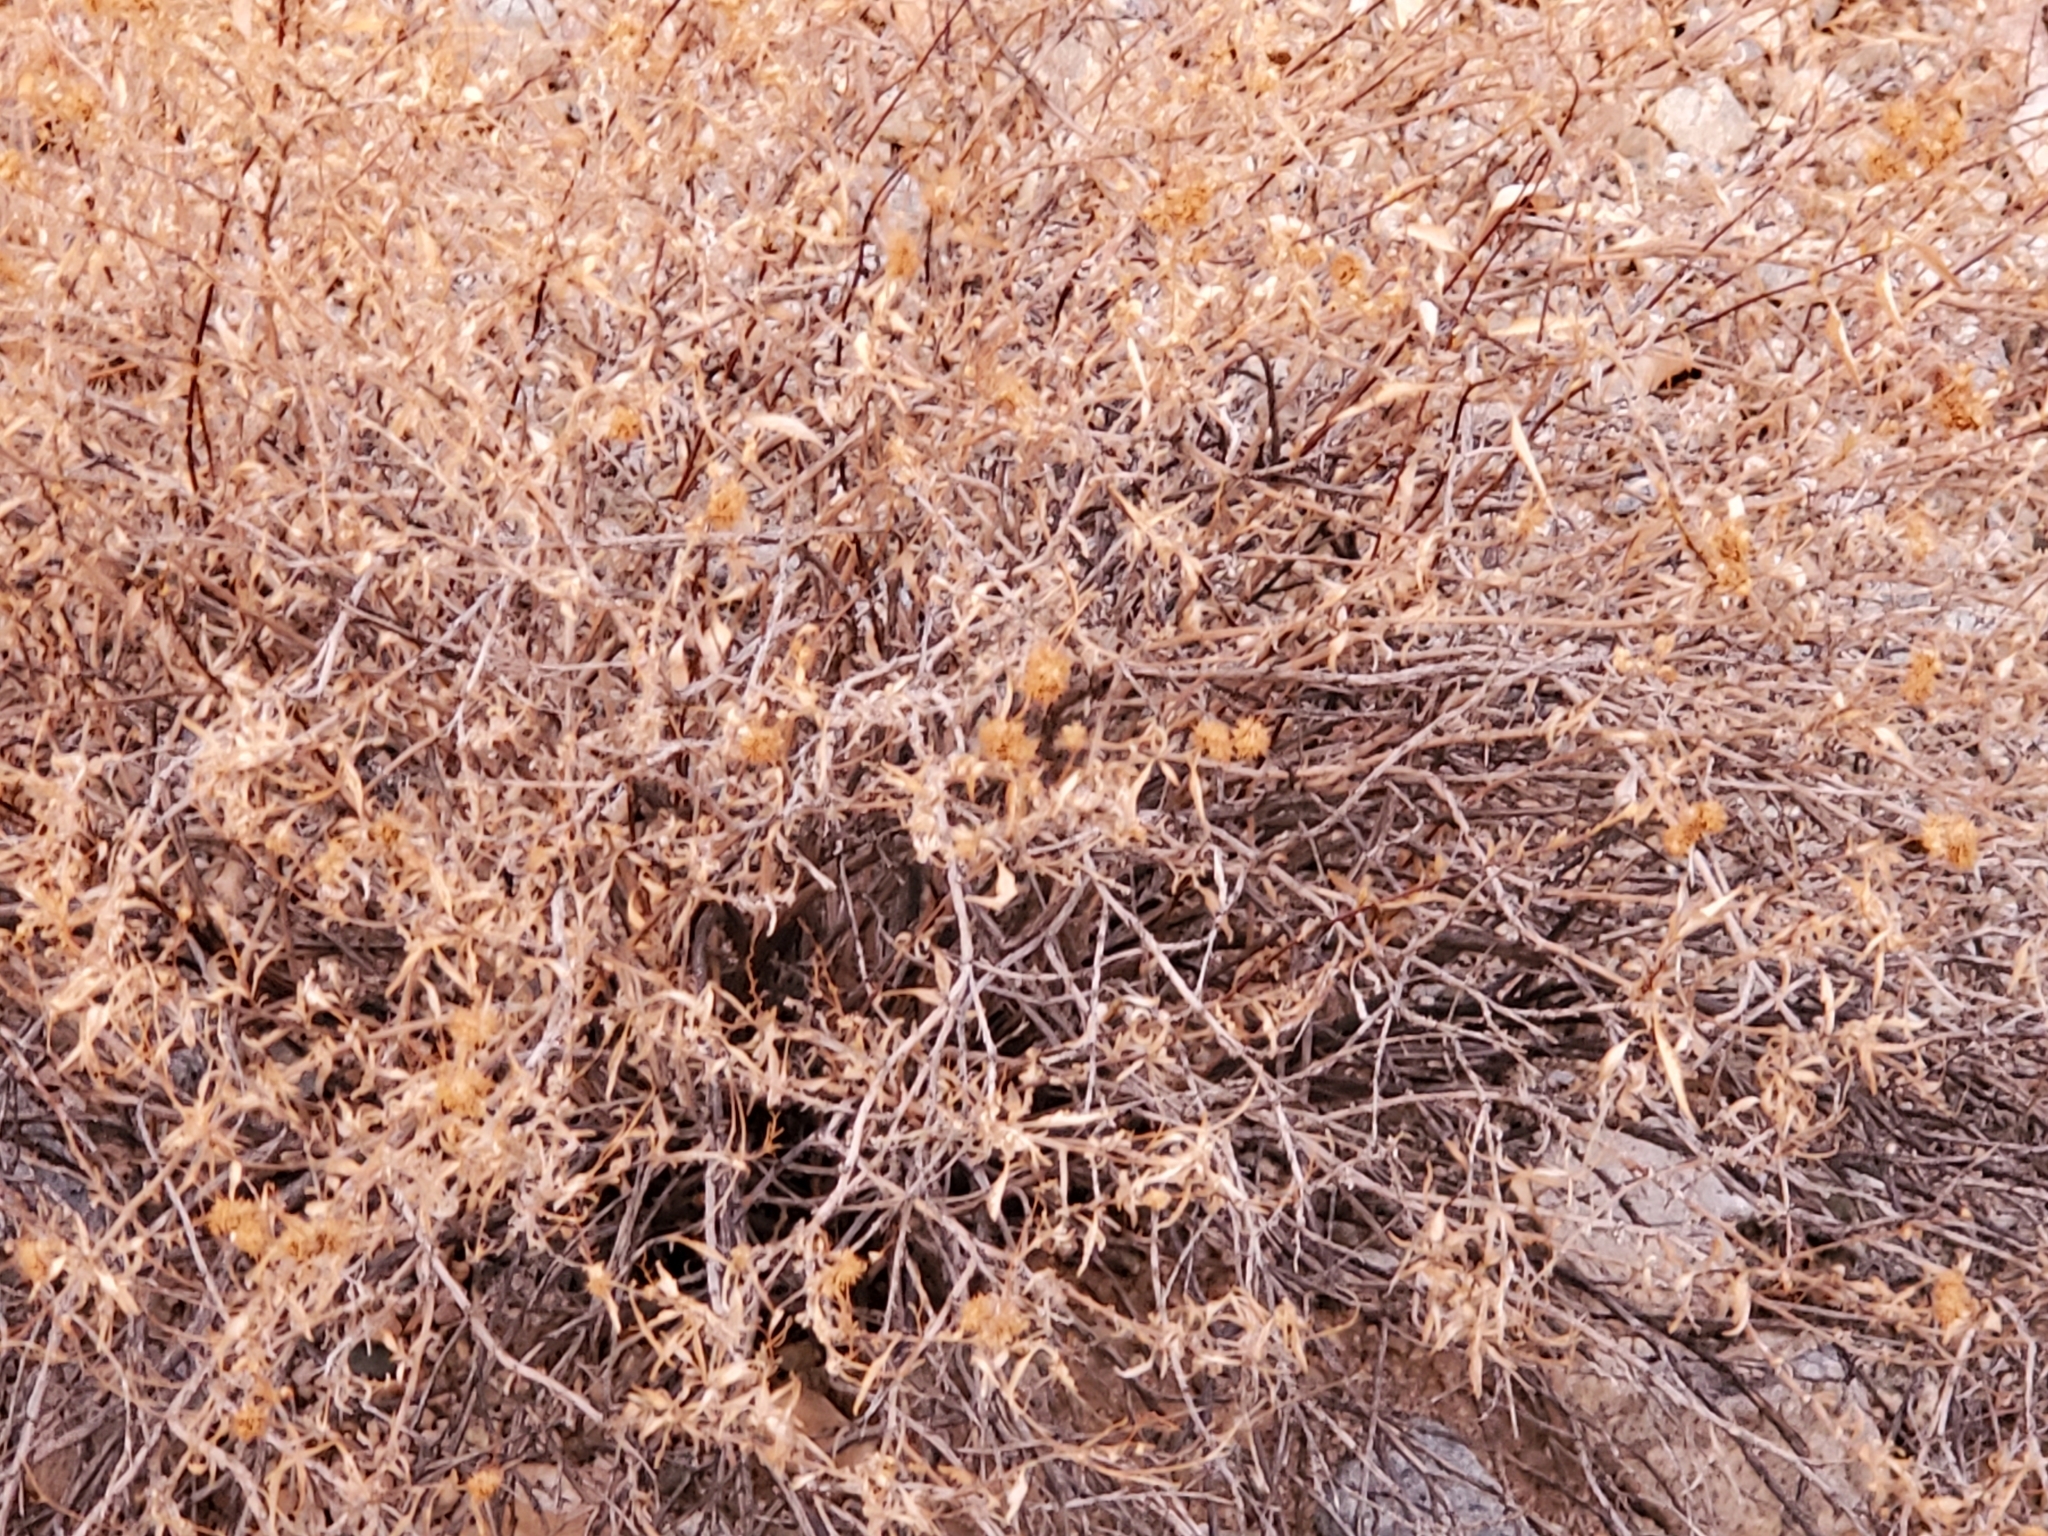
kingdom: Plantae
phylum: Tracheophyta
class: Magnoliopsida
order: Asterales
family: Asteraceae
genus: Ambrosia
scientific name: Ambrosia deltoidea
